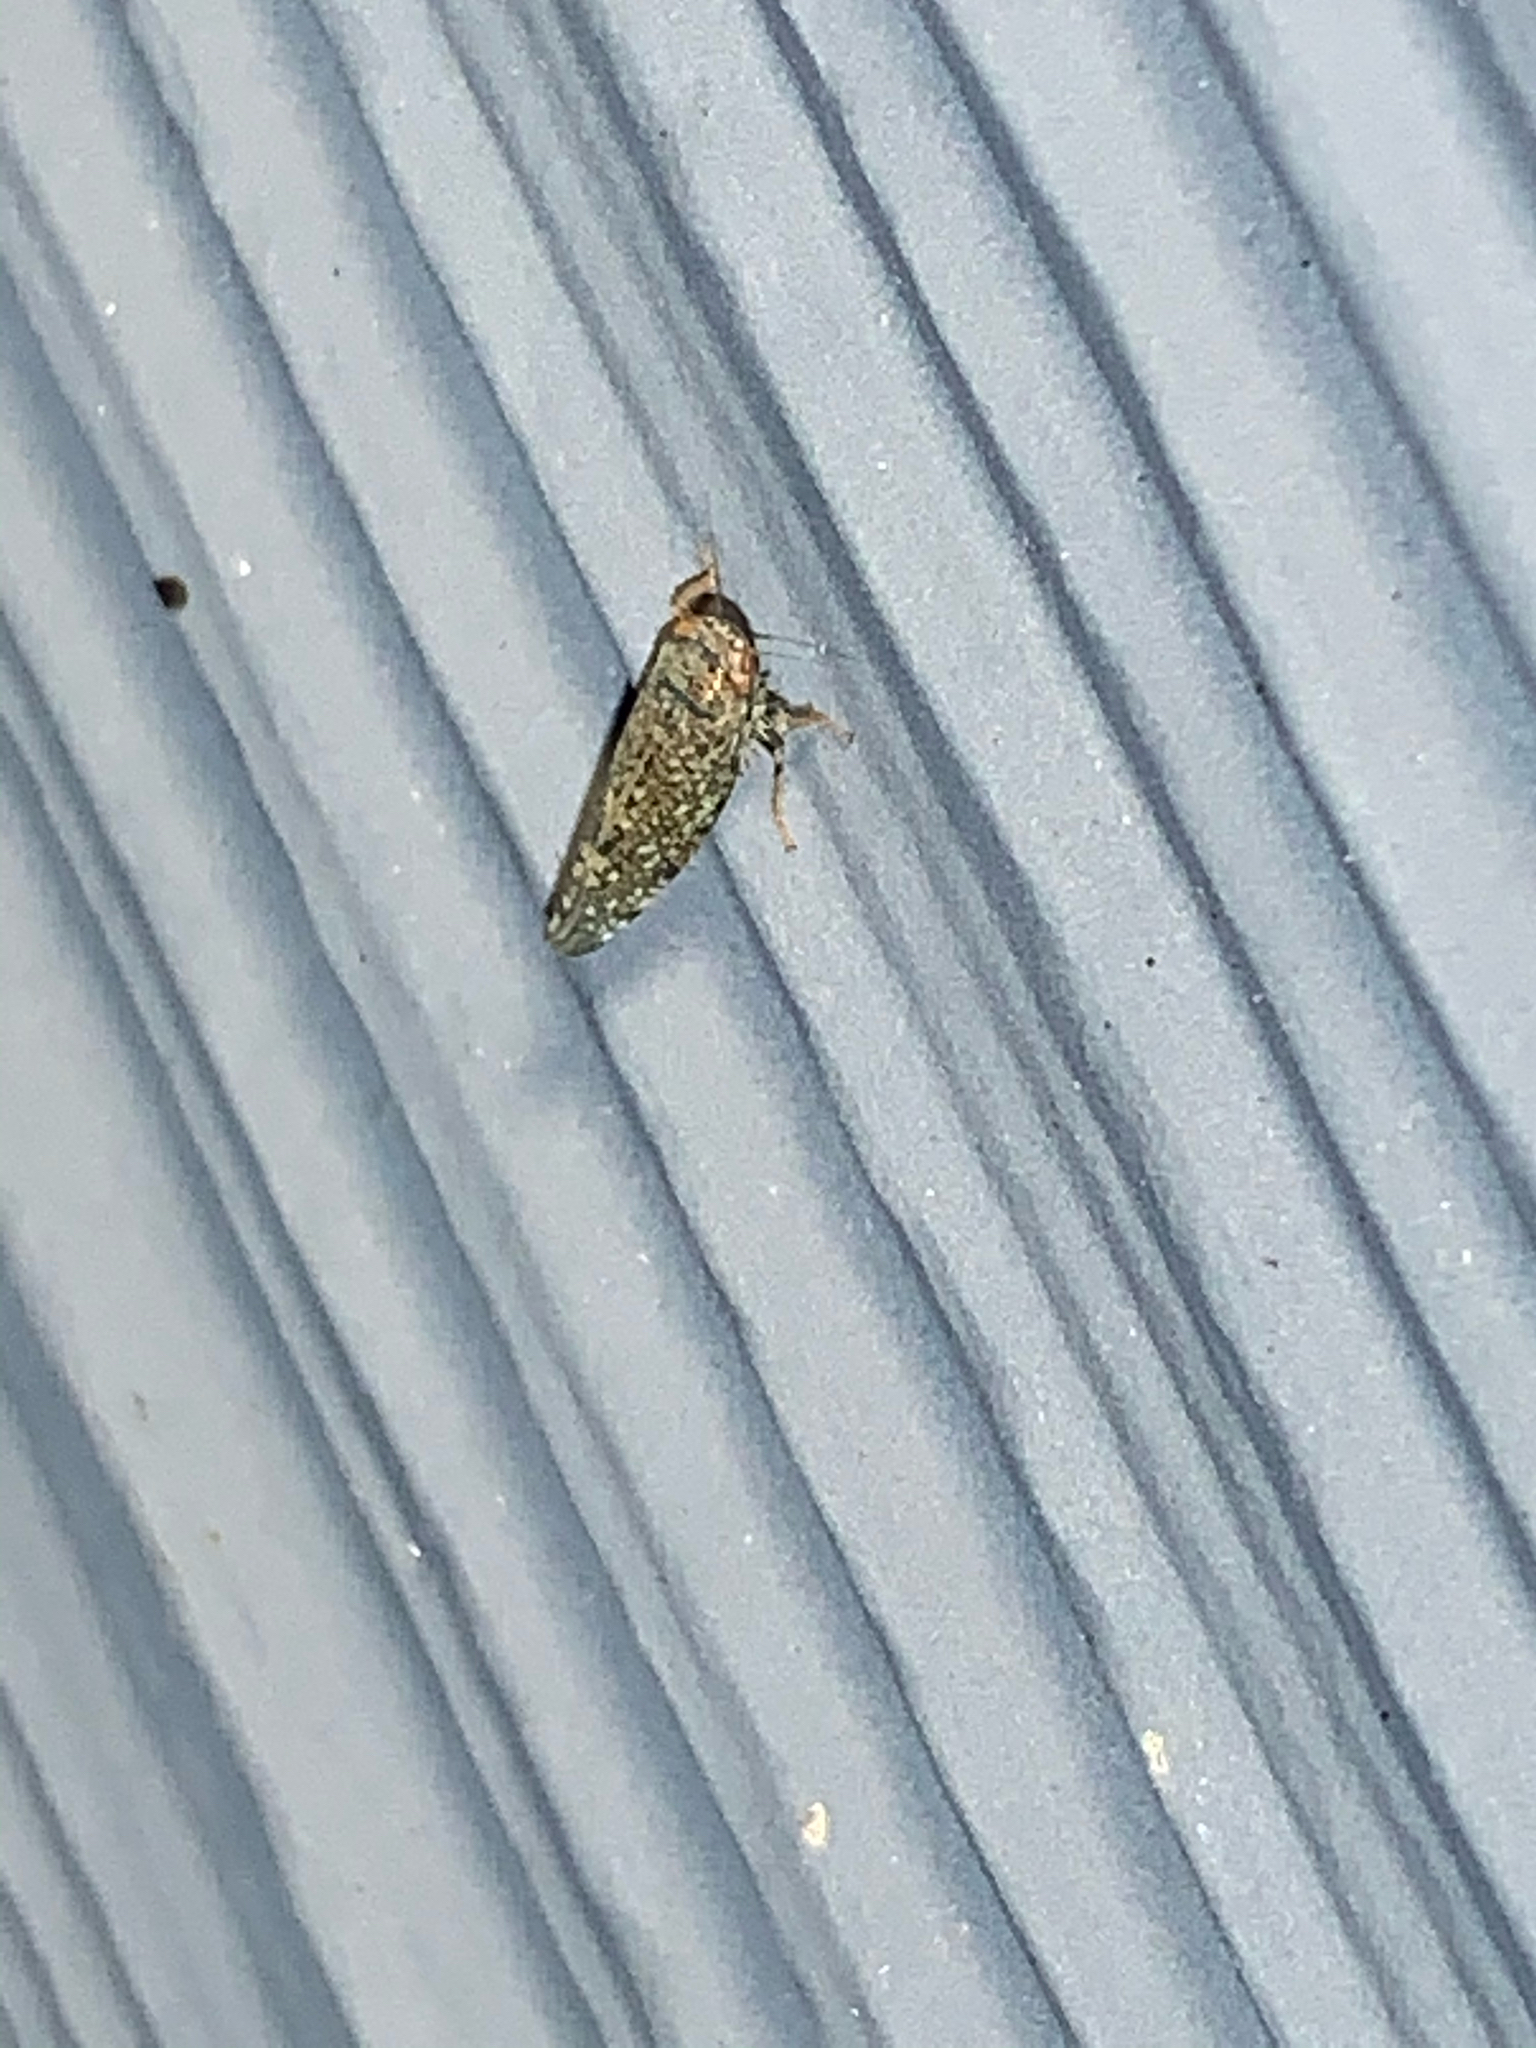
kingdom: Animalia
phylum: Arthropoda
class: Insecta
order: Hemiptera
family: Cicadellidae
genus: Orientus
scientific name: Orientus ishidae
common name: Japanese leafhopper
